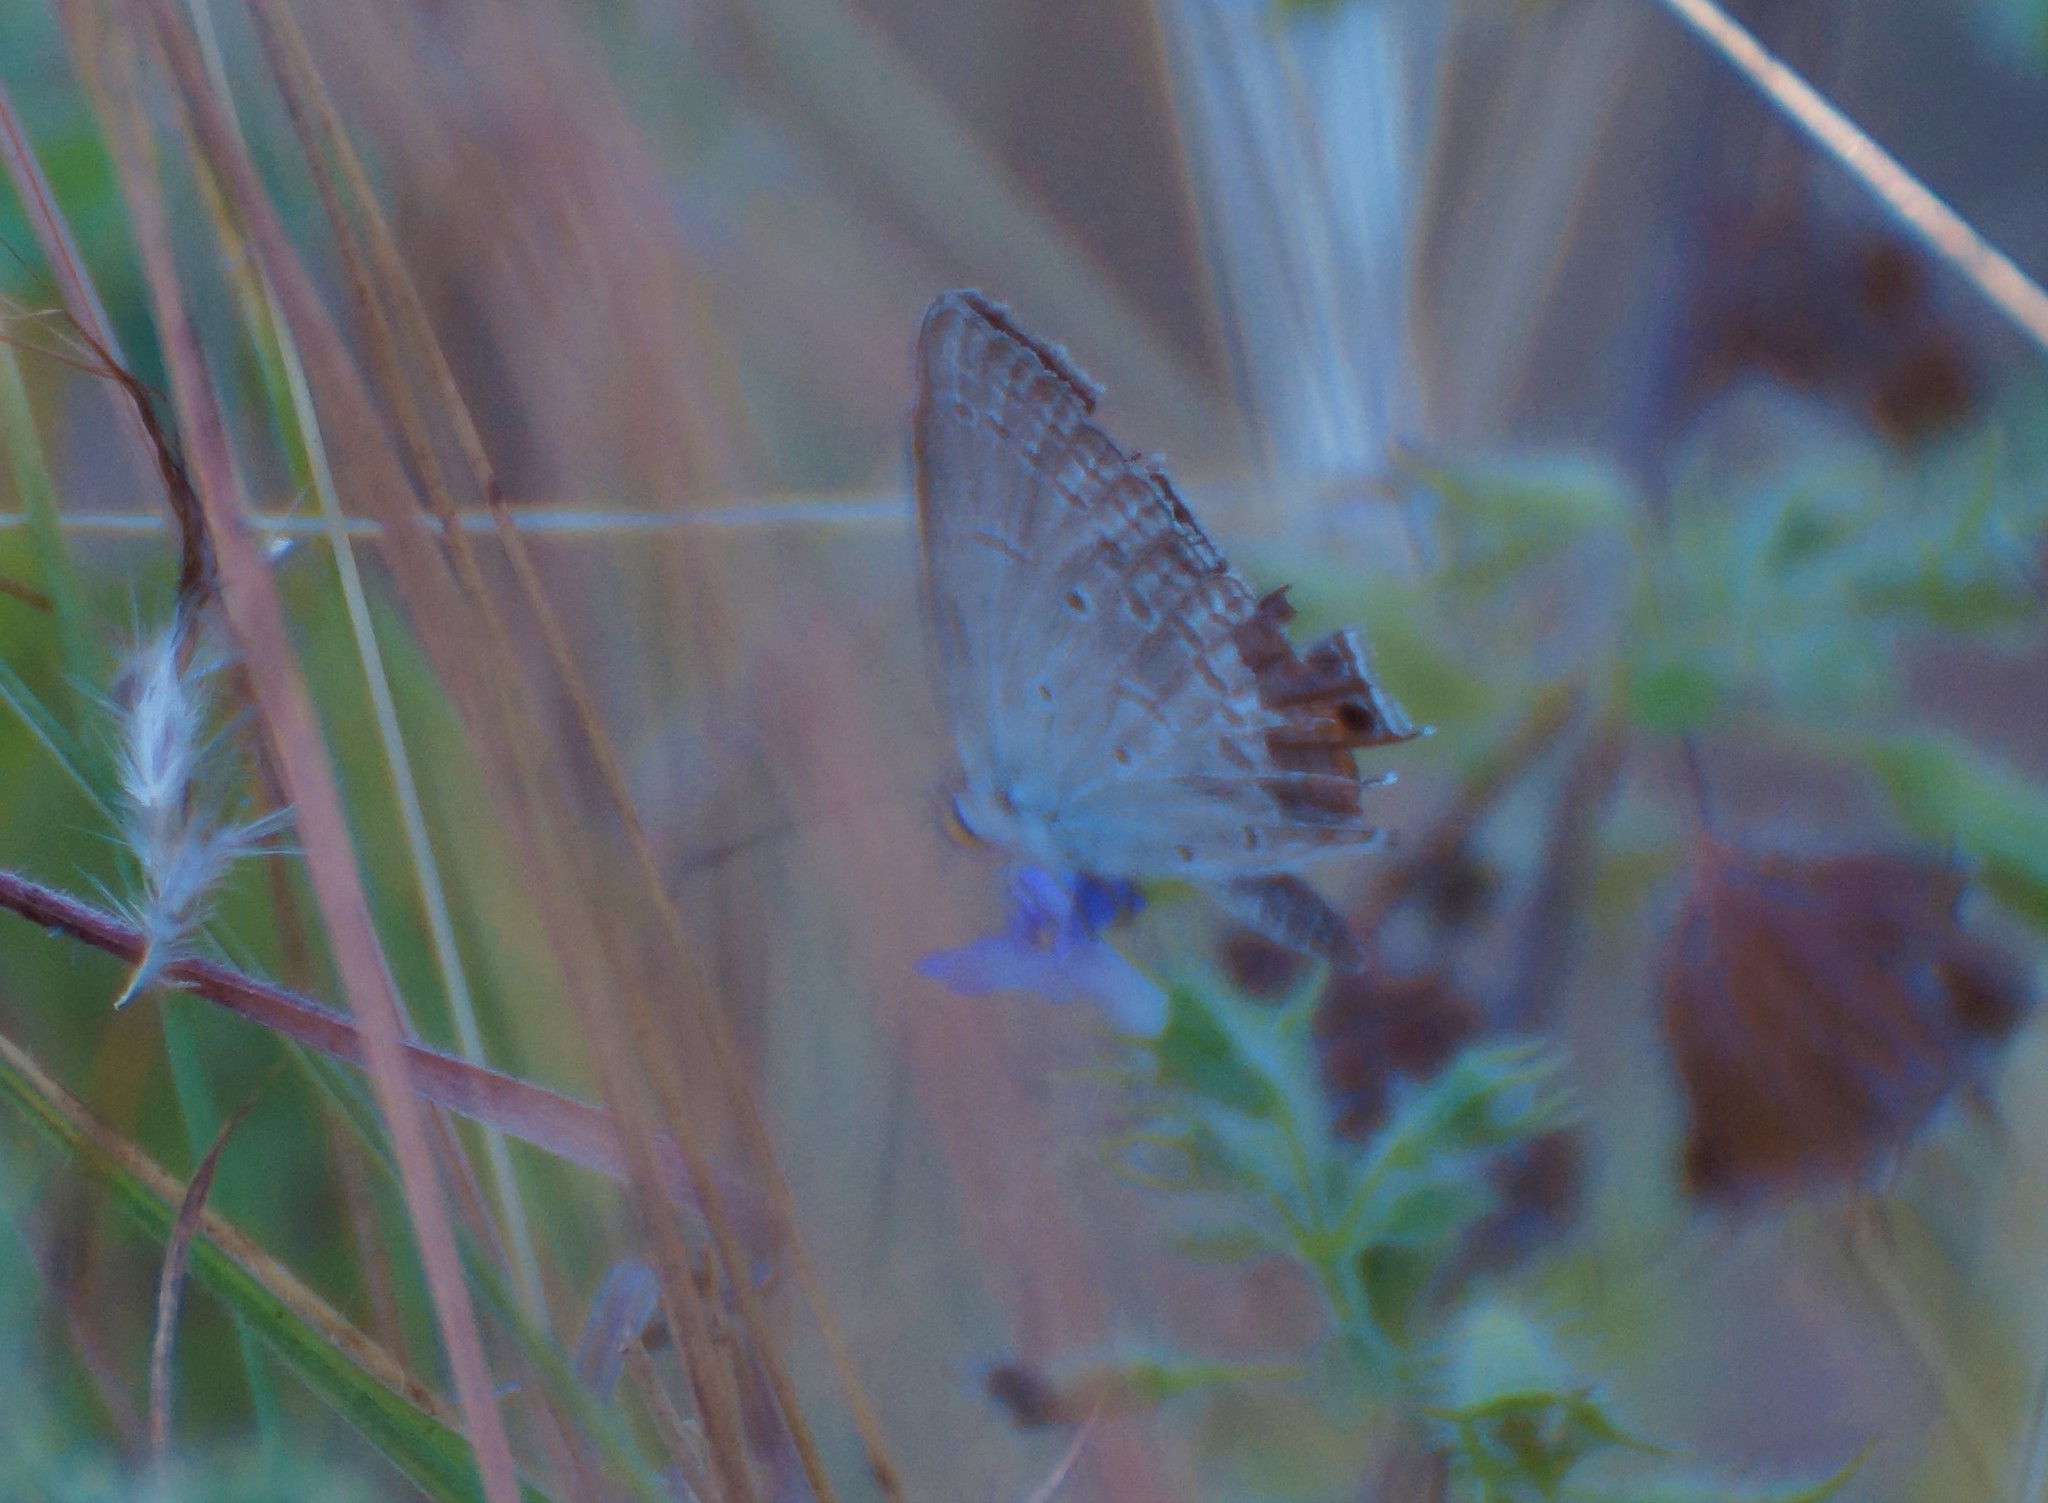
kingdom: Animalia
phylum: Arthropoda
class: Insecta
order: Lepidoptera
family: Lycaenidae
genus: Euchrysops
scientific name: Euchrysops cnejus
